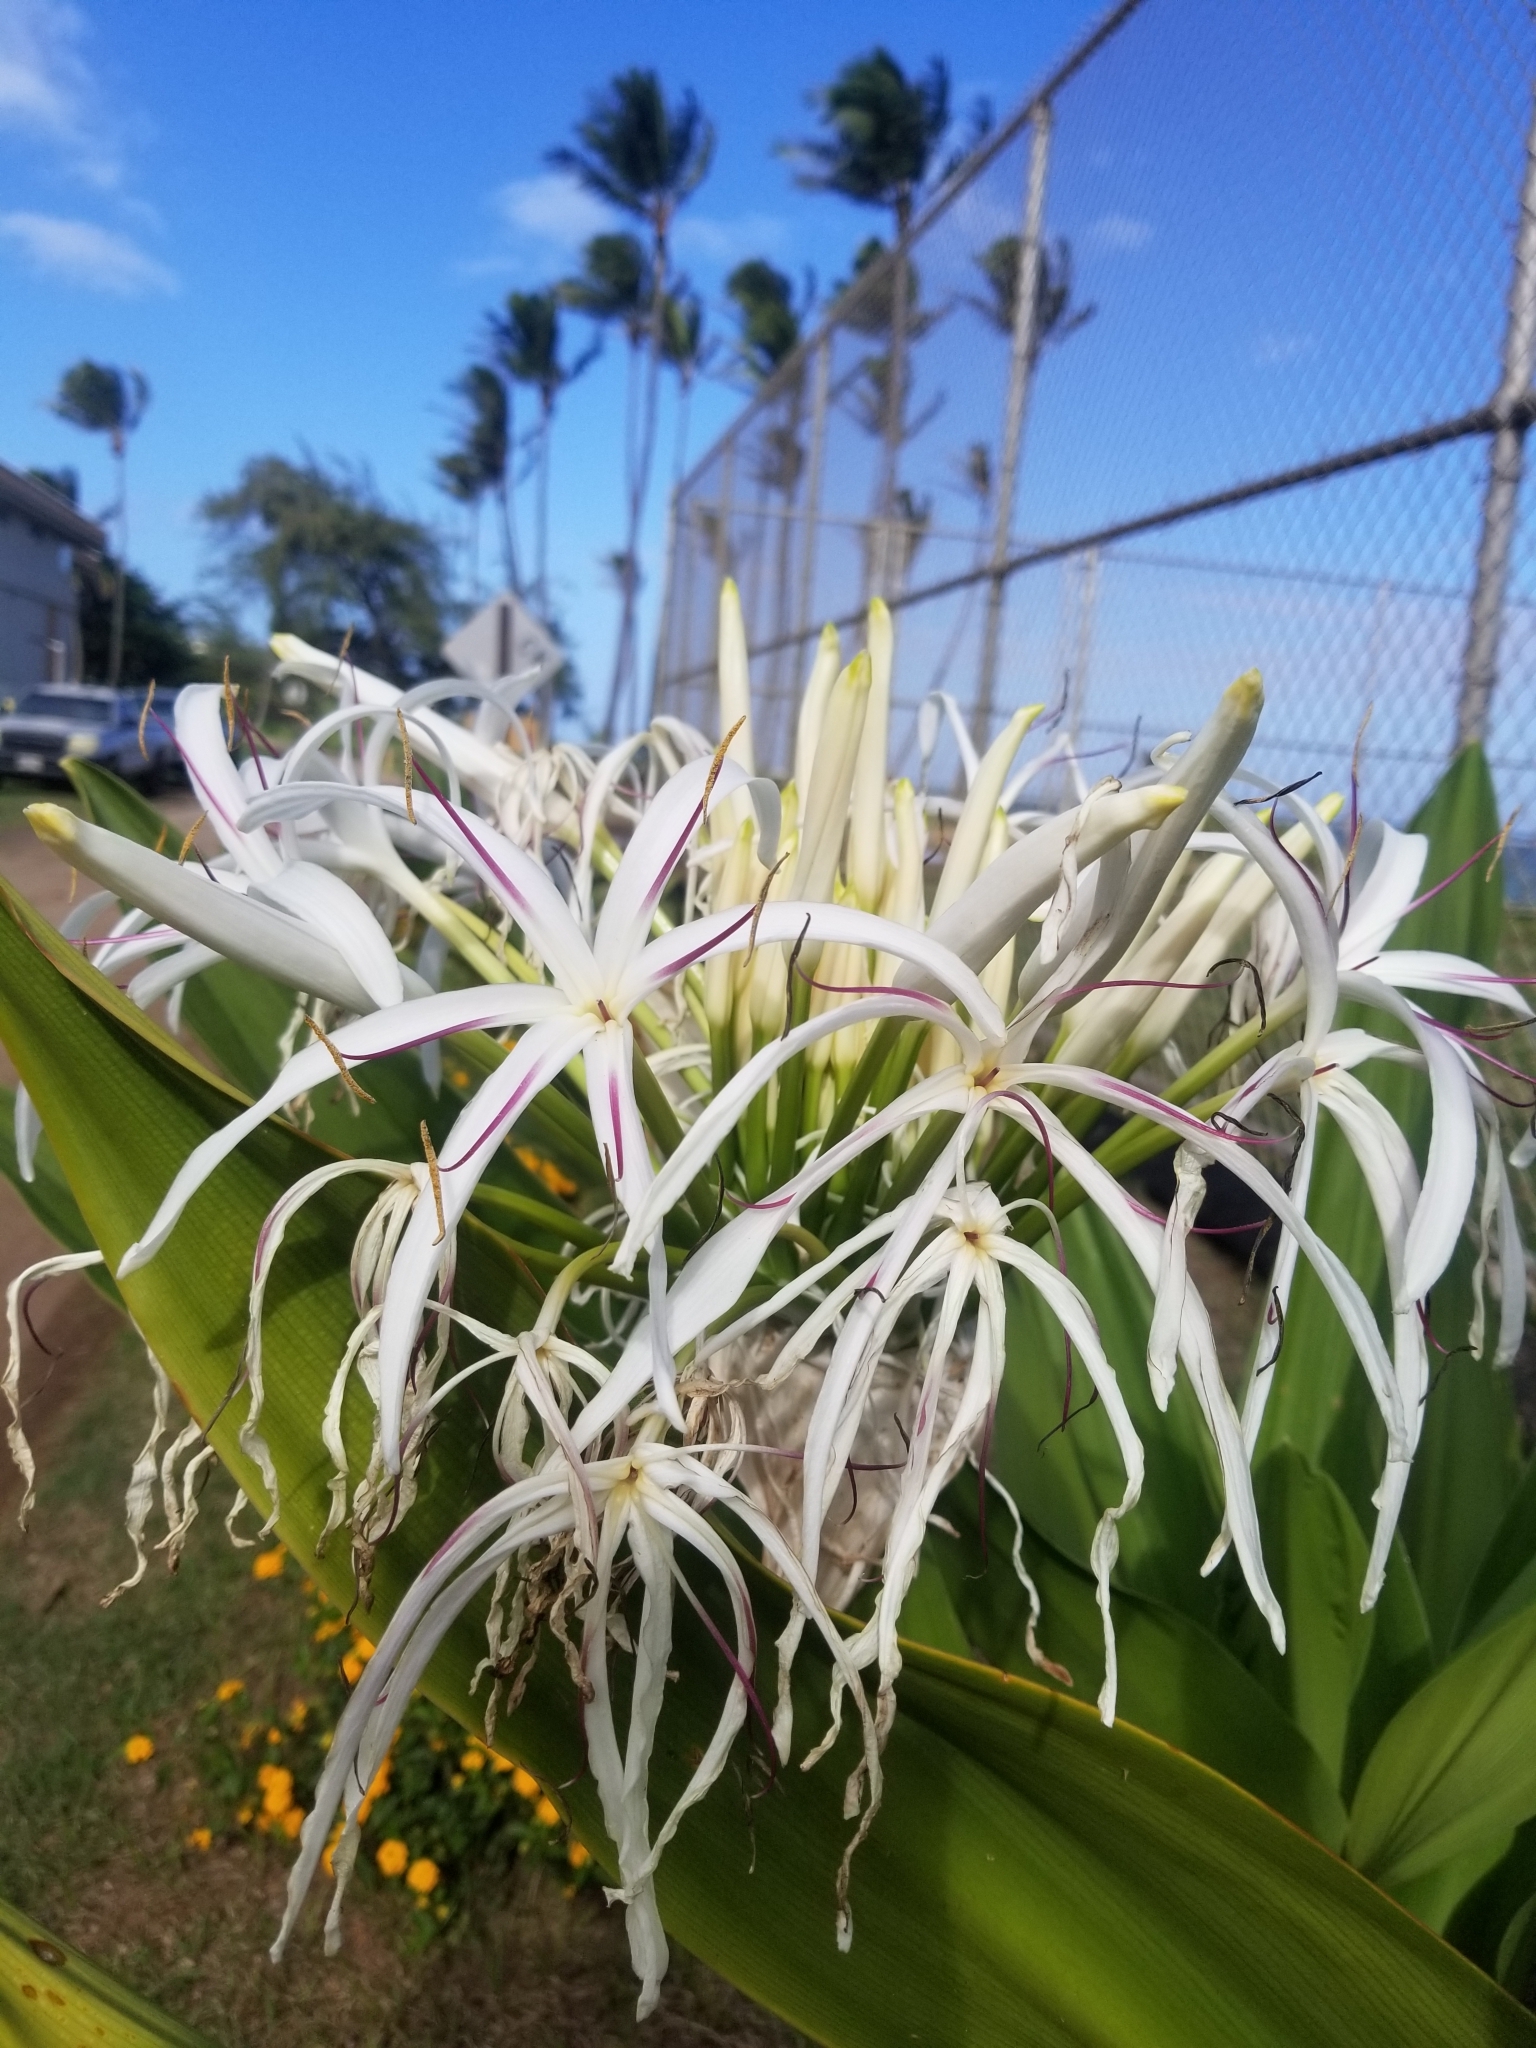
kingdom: Plantae
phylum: Tracheophyta
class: Liliopsida
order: Asparagales
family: Amaryllidaceae
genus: Crinum
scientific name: Crinum asiaticum
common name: Poisonbulb
